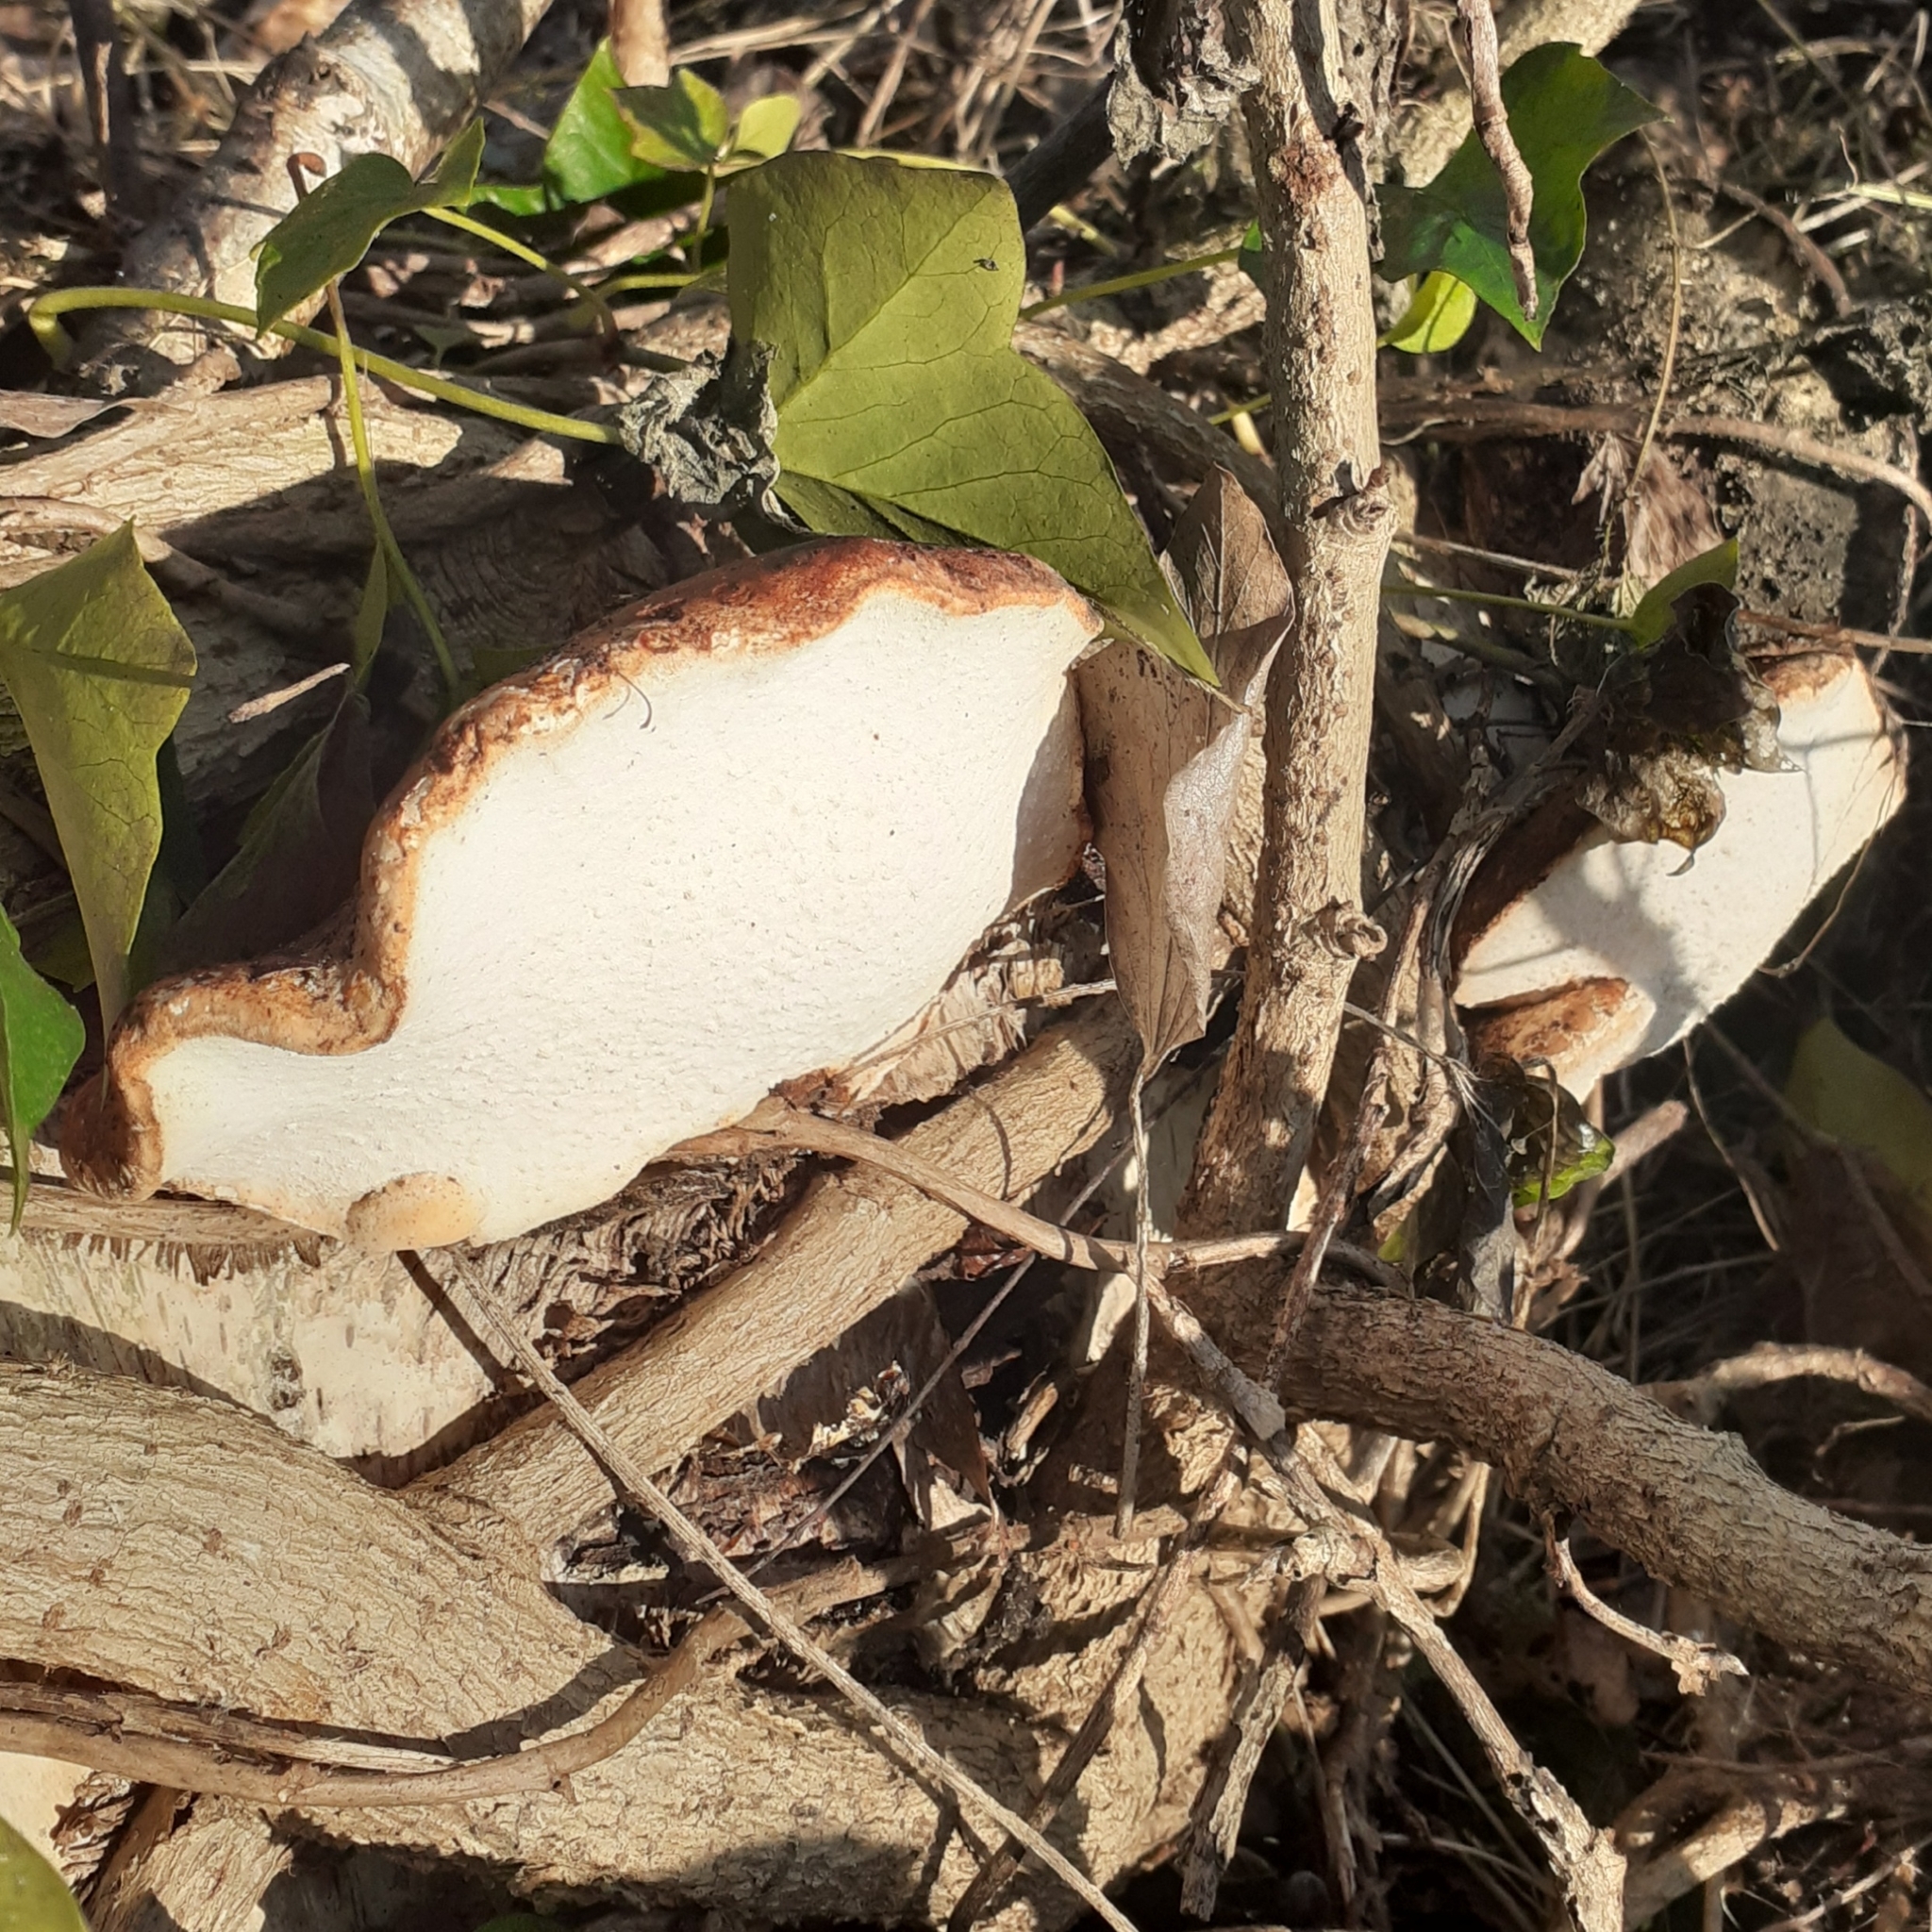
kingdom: Fungi
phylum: Basidiomycota
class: Agaricomycetes
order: Polyporales
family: Fomitopsidaceae
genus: Fomitopsis
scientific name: Fomitopsis betulina
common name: Birch polypore
